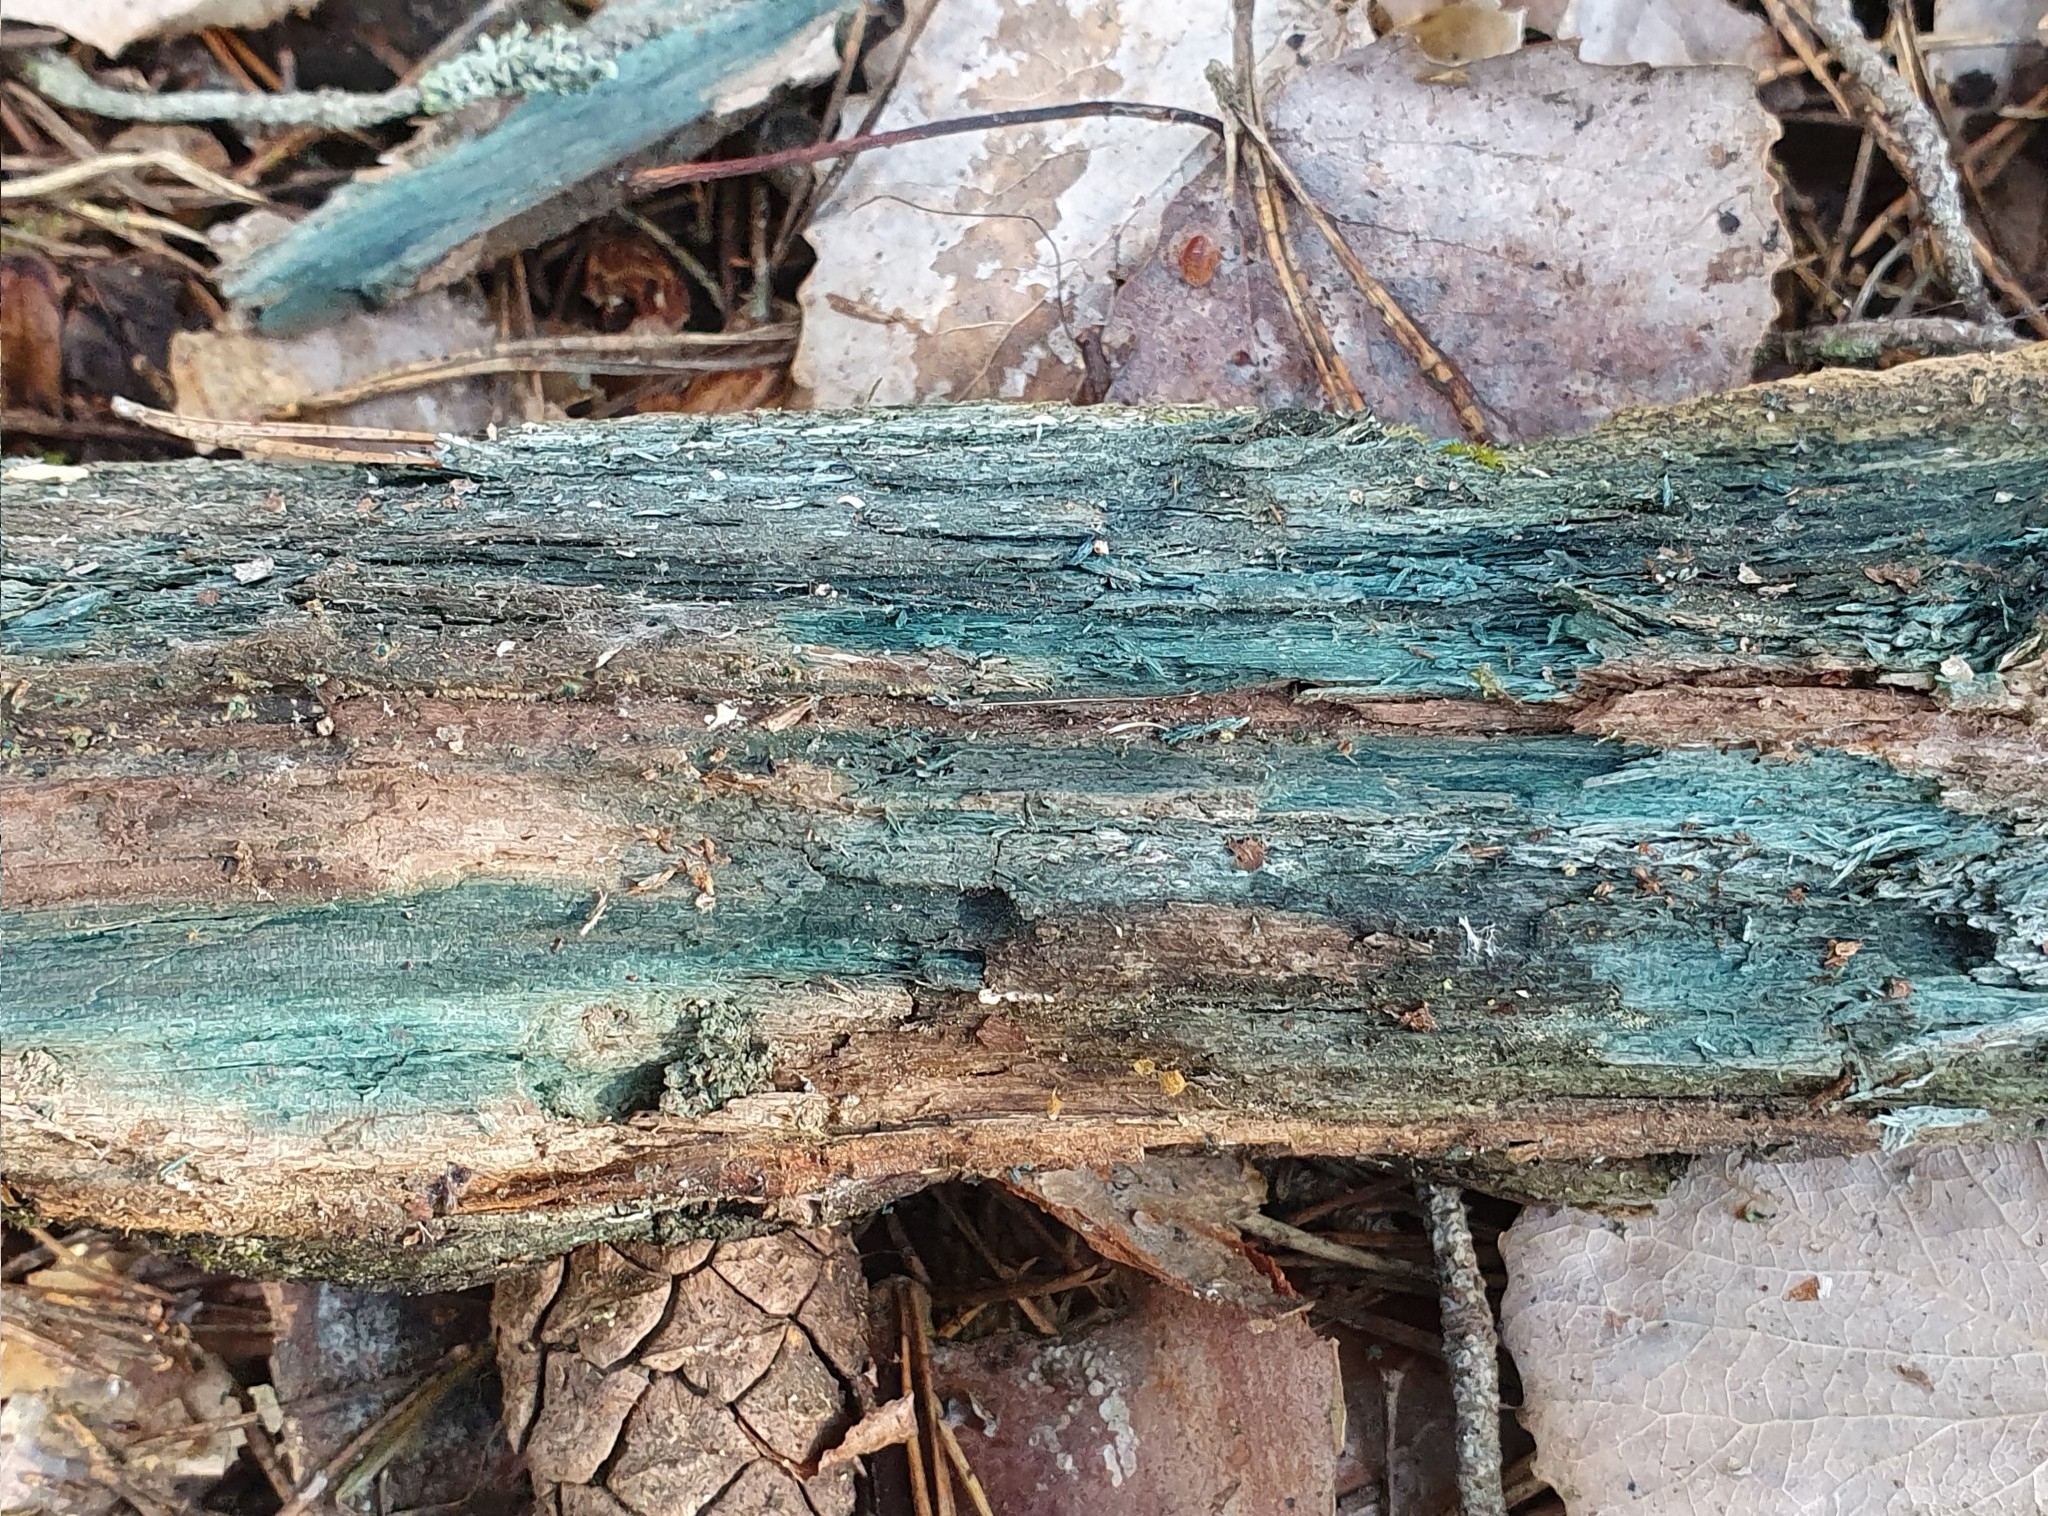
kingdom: Fungi
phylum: Ascomycota
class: Leotiomycetes
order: Helotiales
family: Chlorociboriaceae
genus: Chlorociboria
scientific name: Chlorociboria
